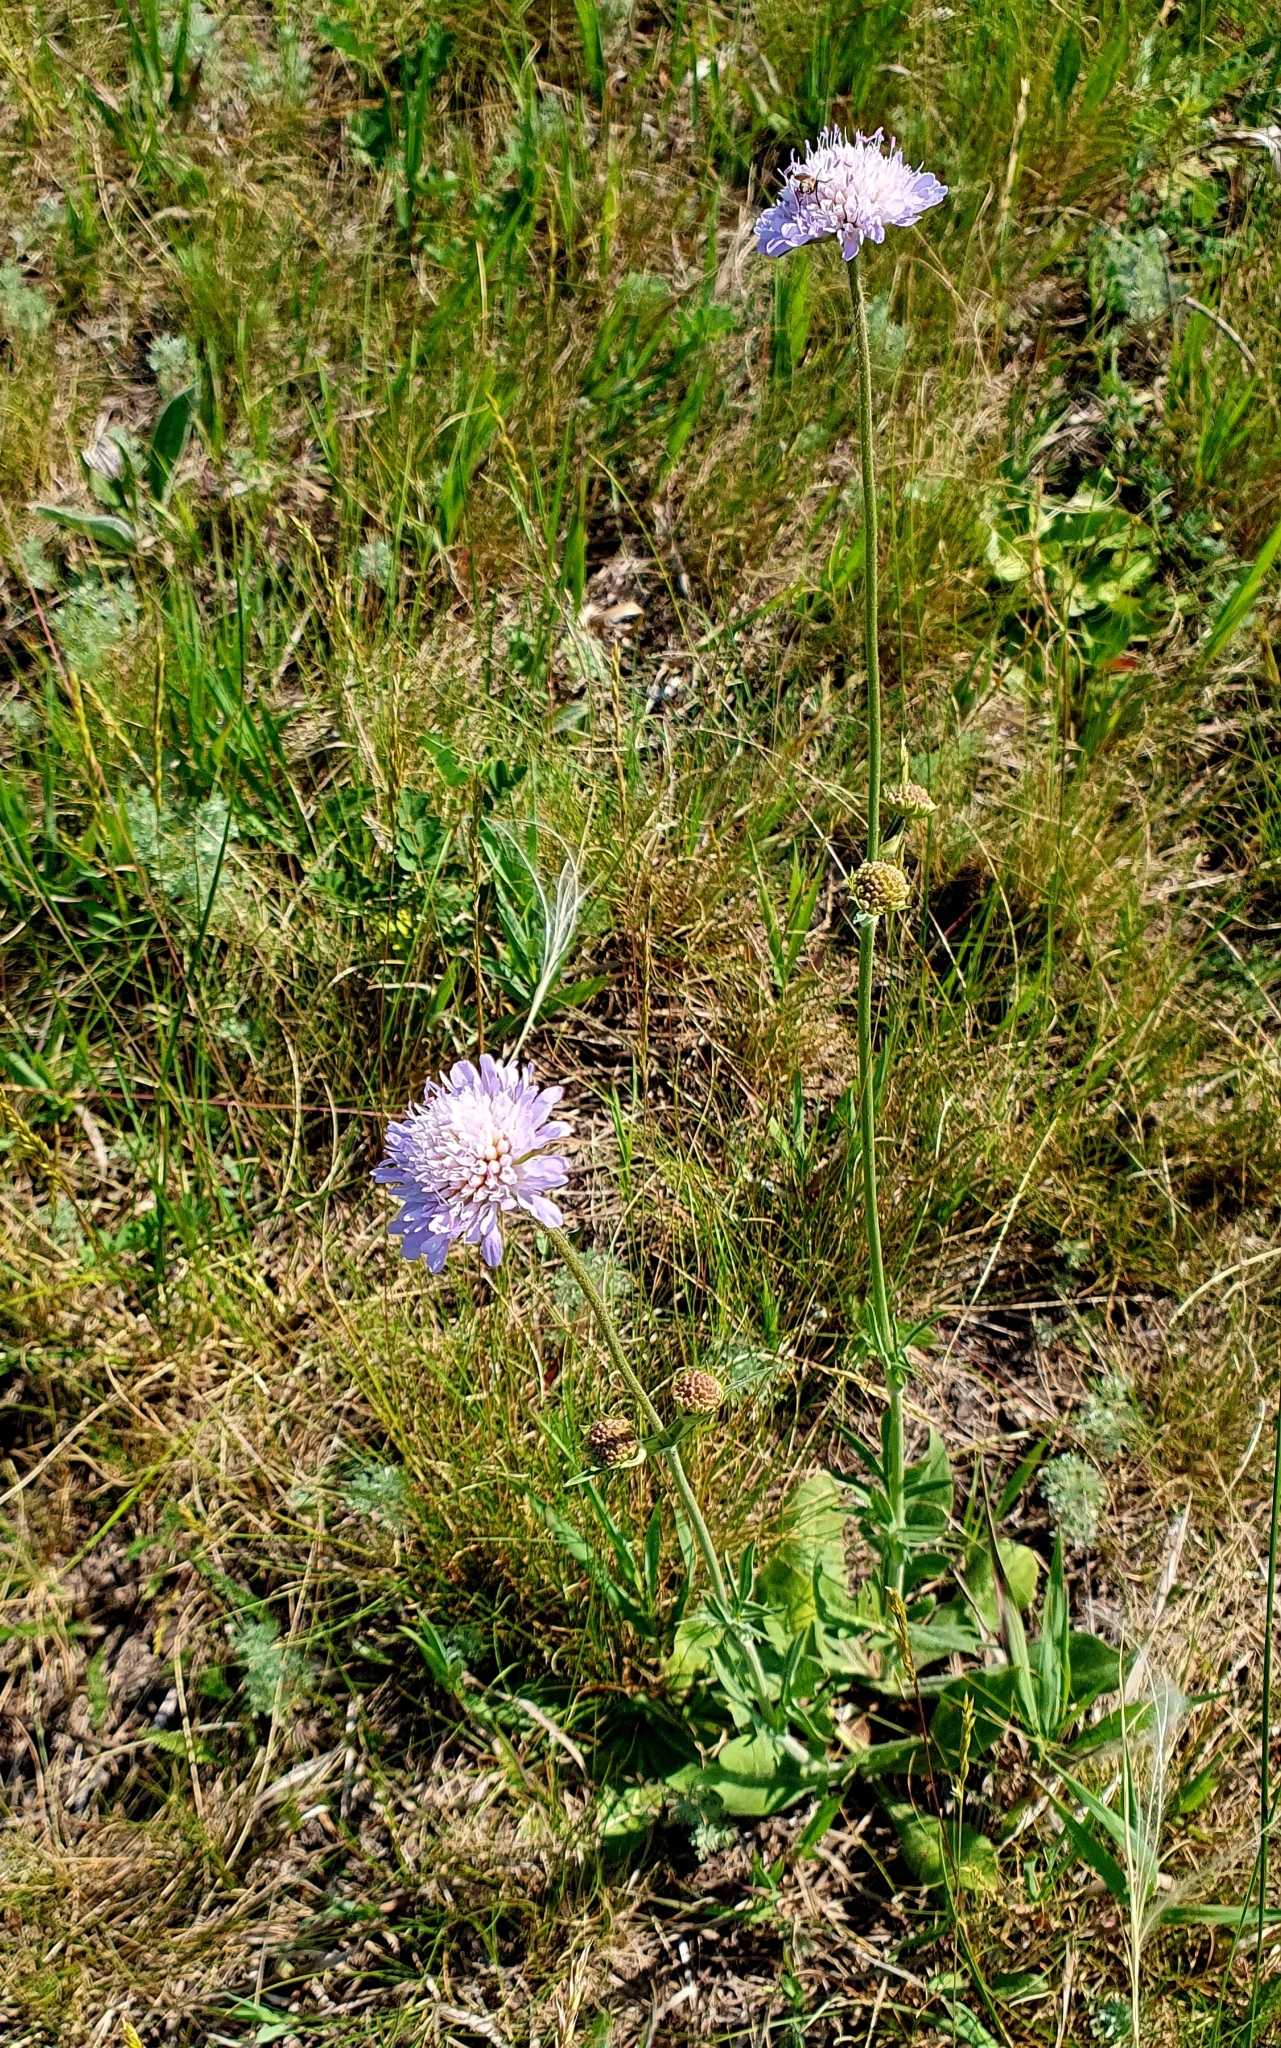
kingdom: Plantae
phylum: Tracheophyta
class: Magnoliopsida
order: Dipsacales
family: Caprifoliaceae
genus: Knautia
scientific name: Knautia arvensis
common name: Field scabiosa
